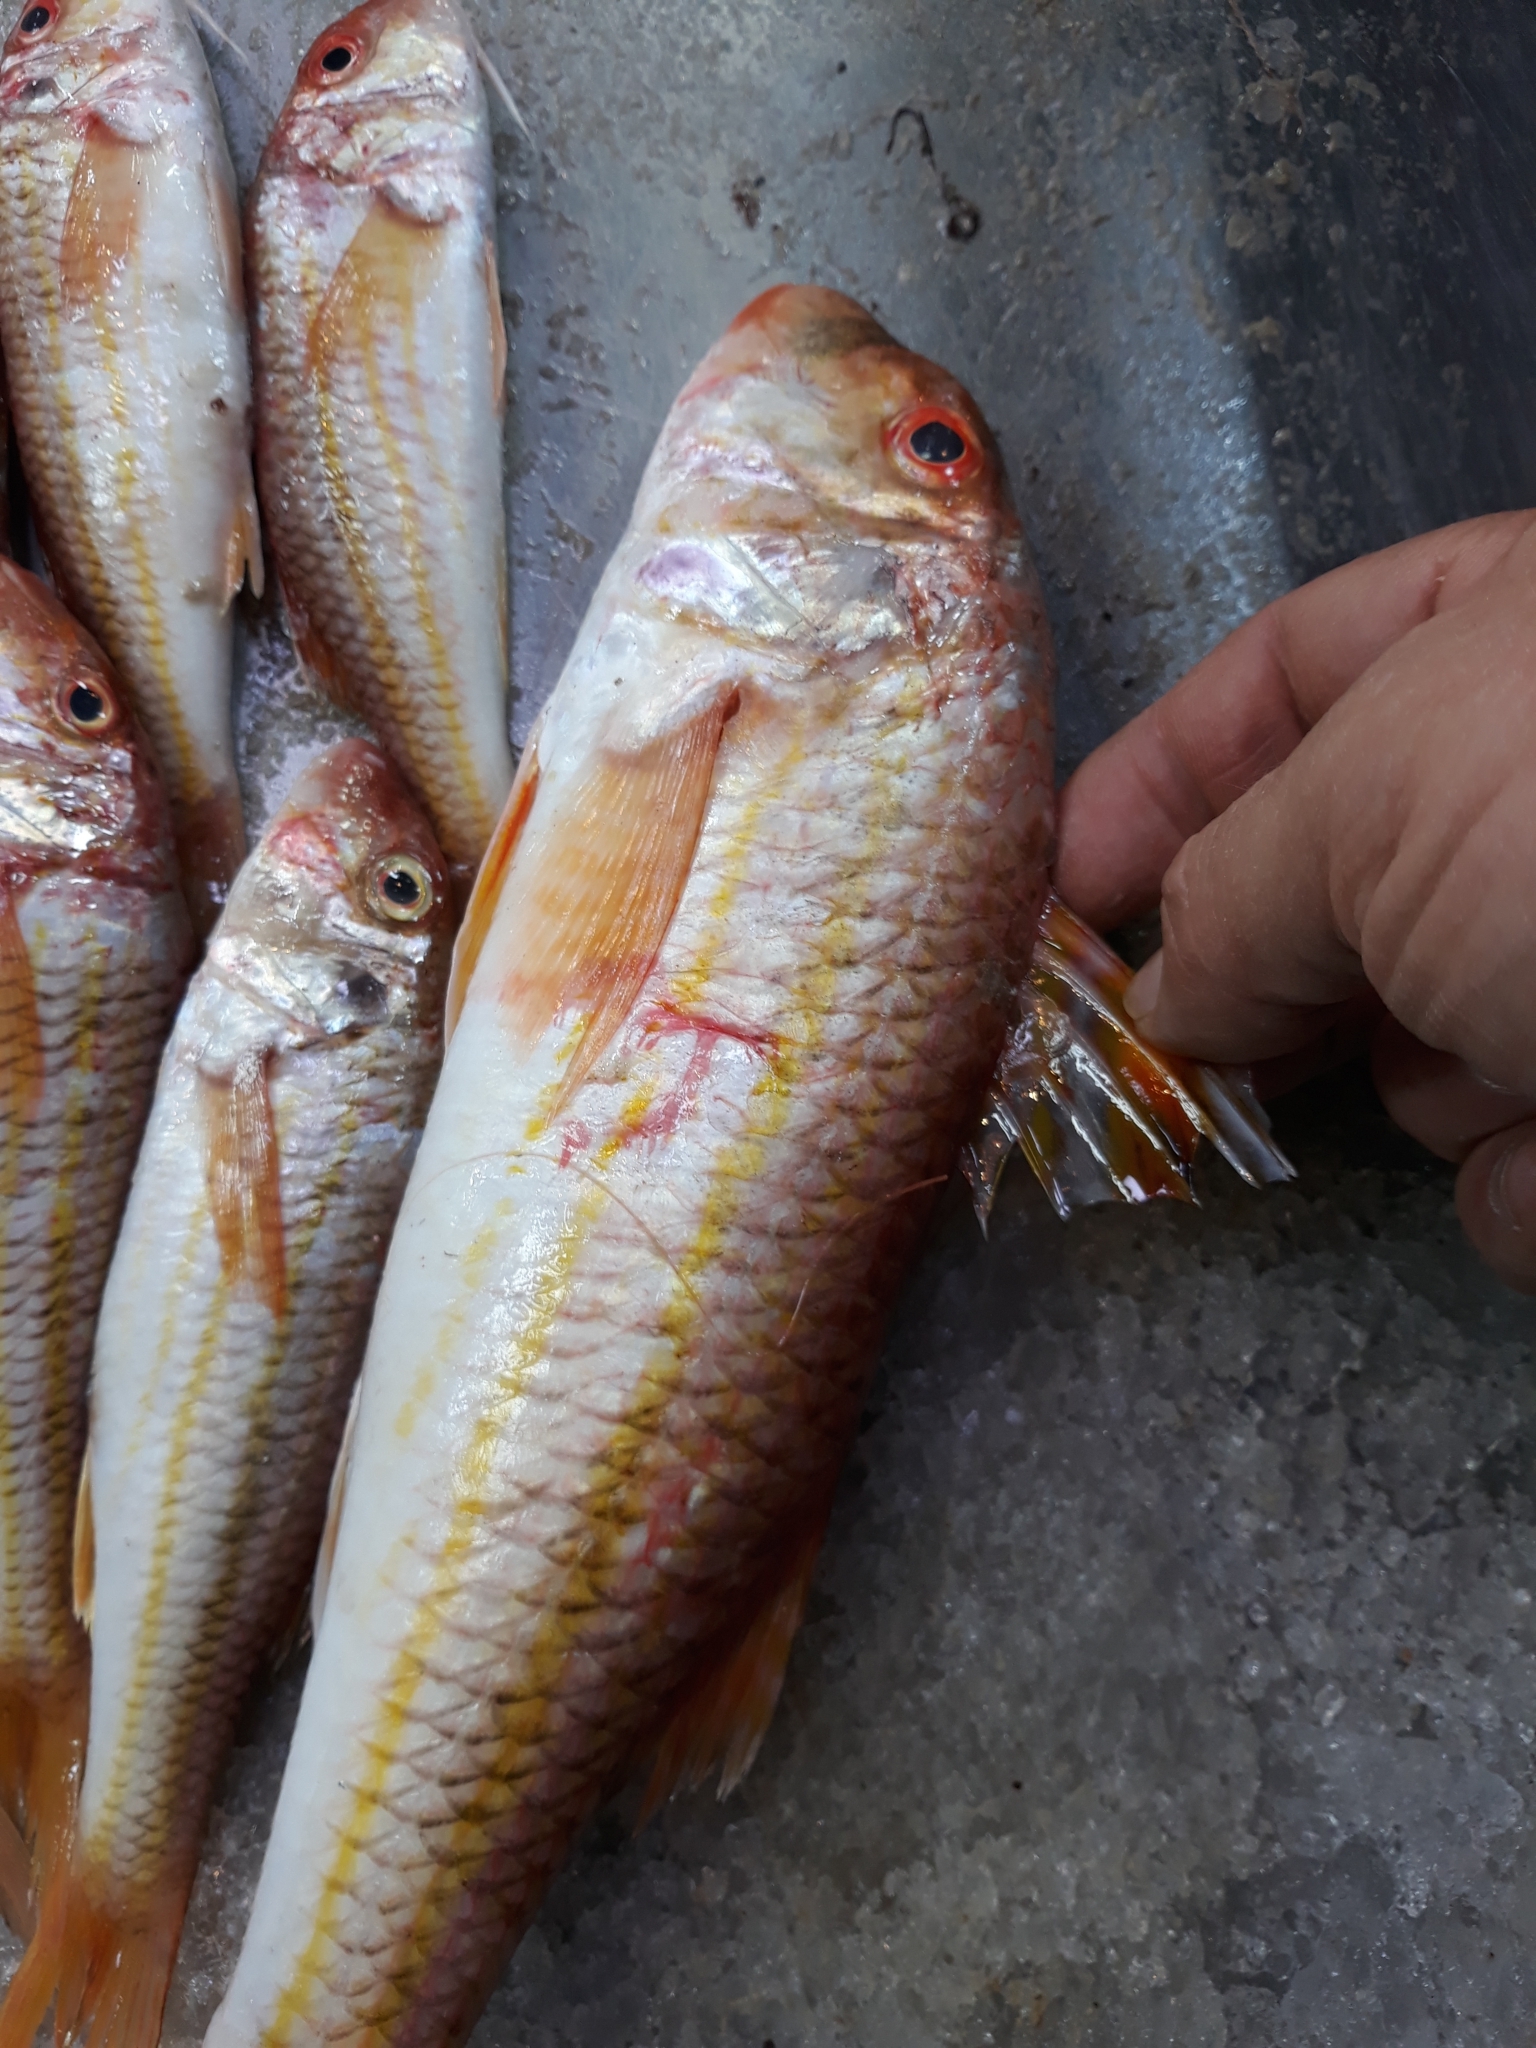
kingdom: Animalia
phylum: Chordata
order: Perciformes
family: Mullidae
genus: Mullus
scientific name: Mullus surmuletus
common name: Red mullet
